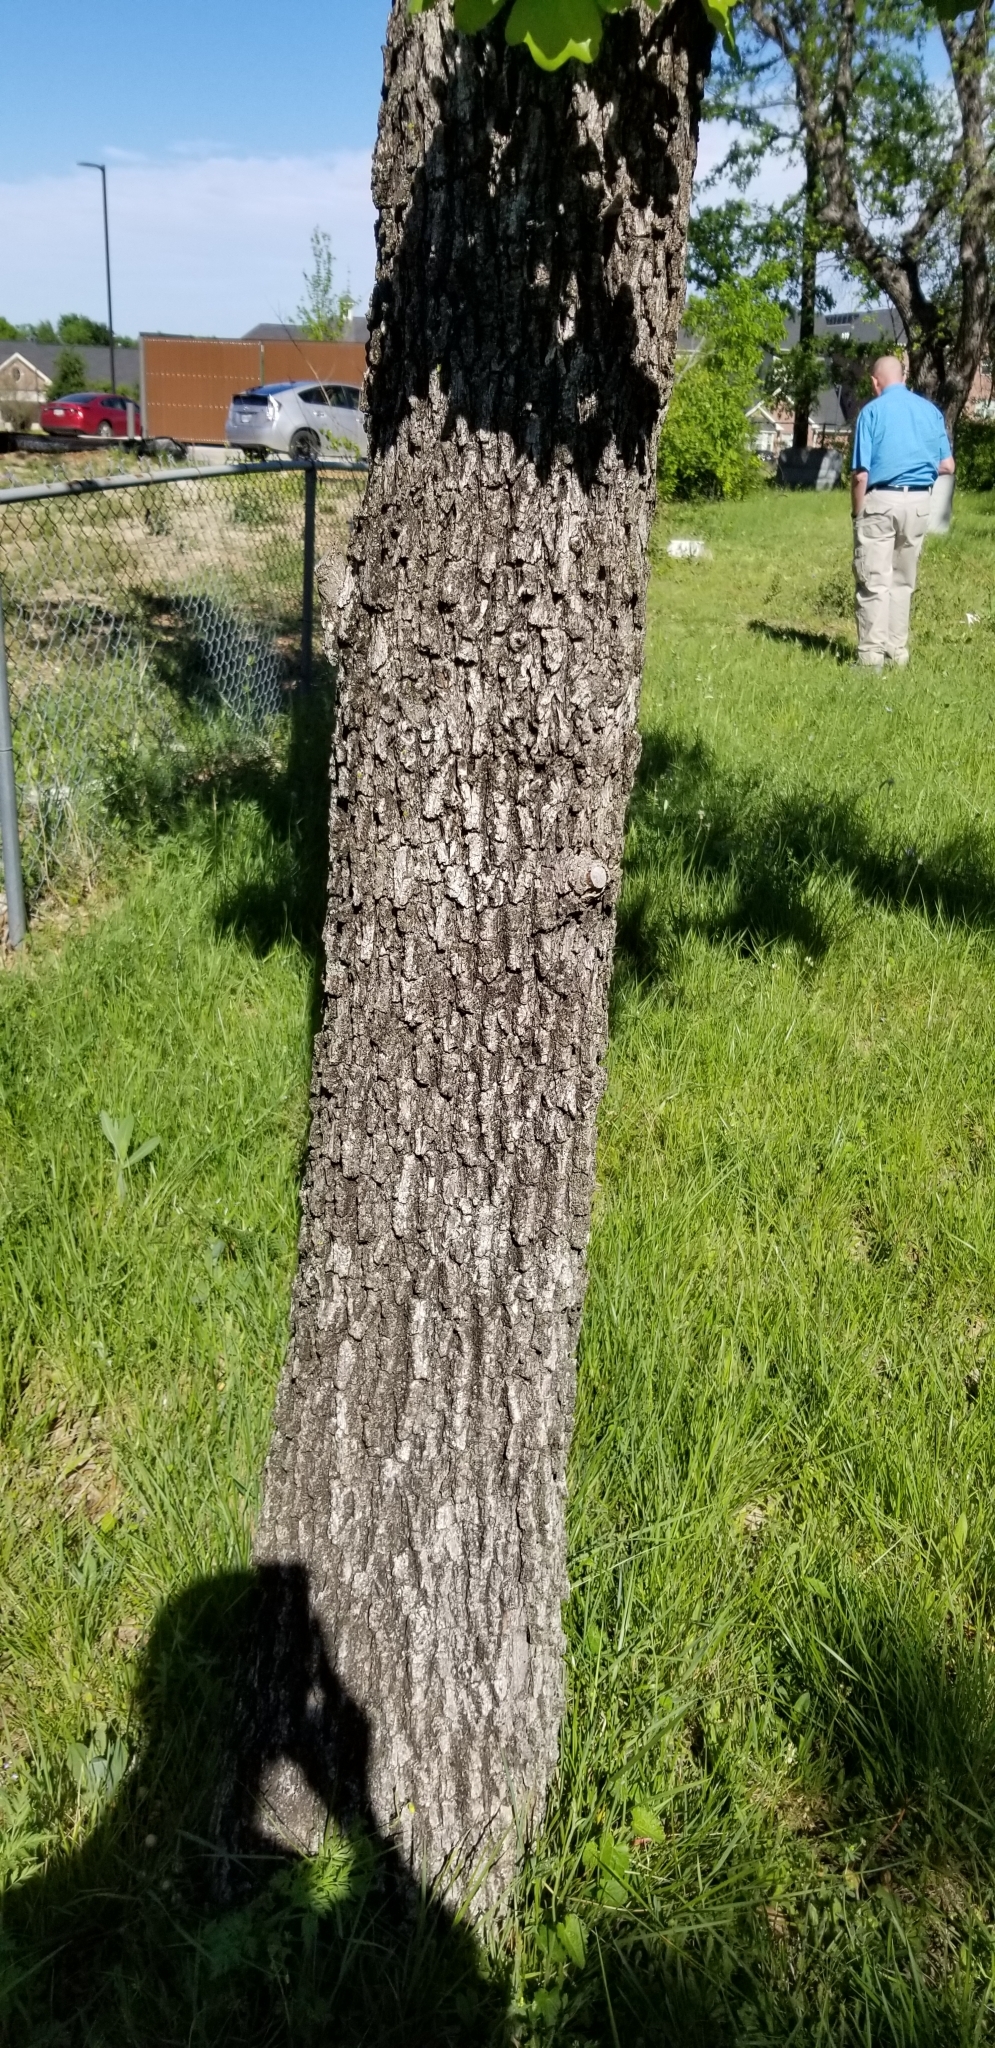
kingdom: Plantae
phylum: Tracheophyta
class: Magnoliopsida
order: Fagales
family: Fagaceae
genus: Quercus
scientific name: Quercus stellata
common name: Post oak
